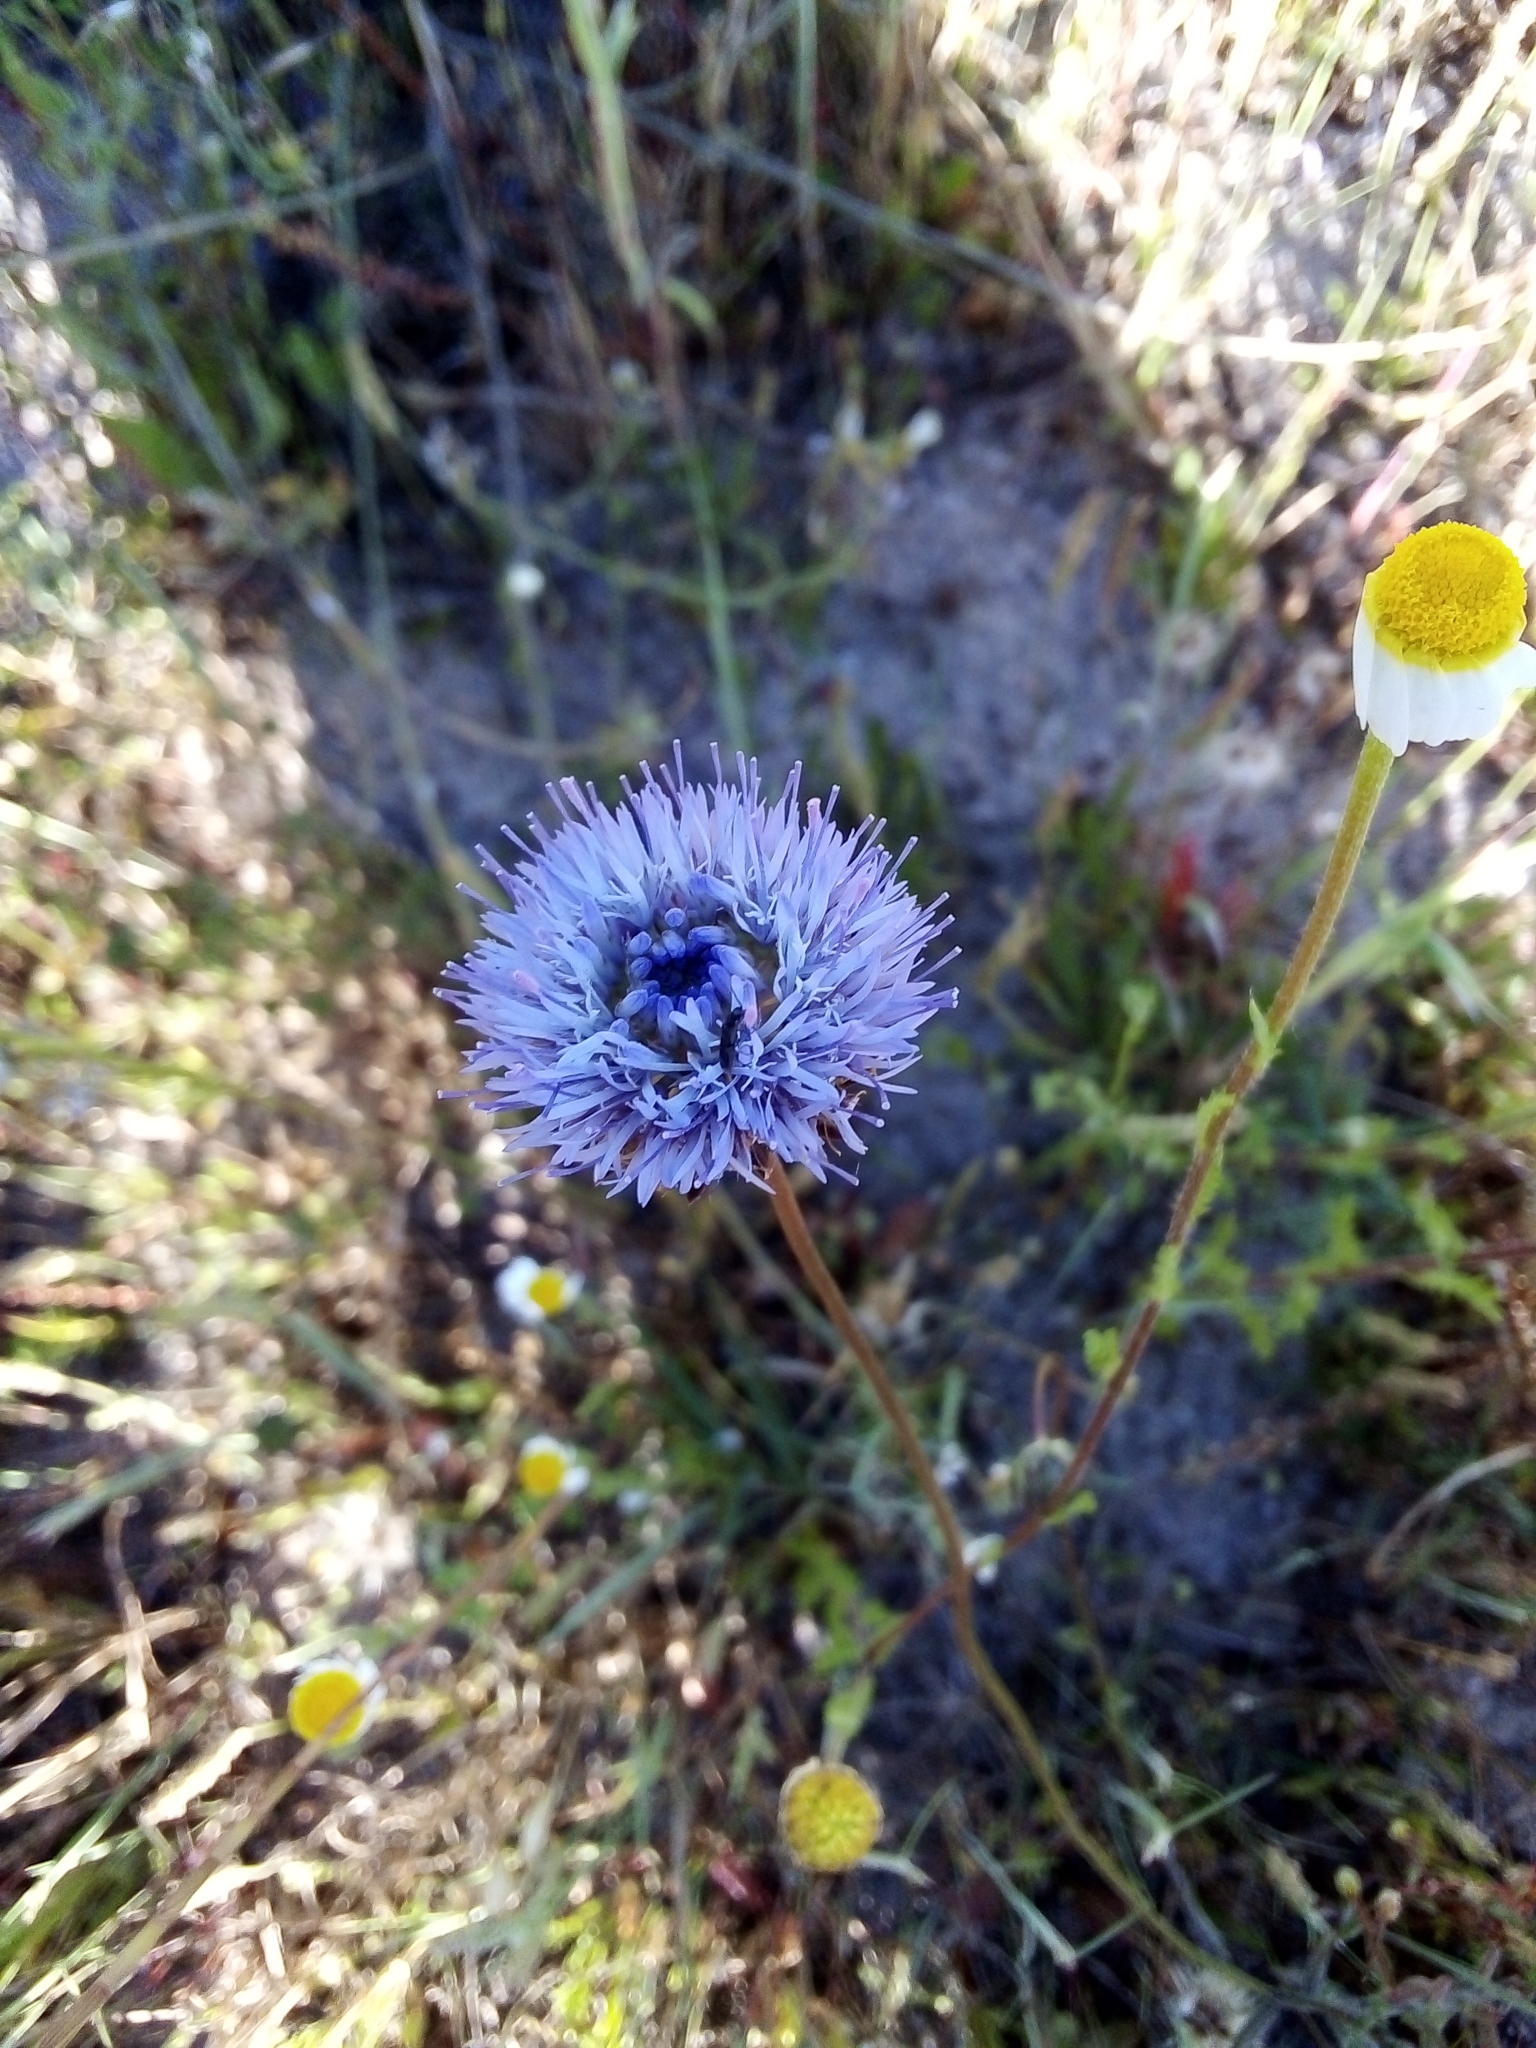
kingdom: Plantae
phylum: Tracheophyta
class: Magnoliopsida
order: Asterales
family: Campanulaceae
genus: Jasione
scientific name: Jasione montana
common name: Sheep's-bit
